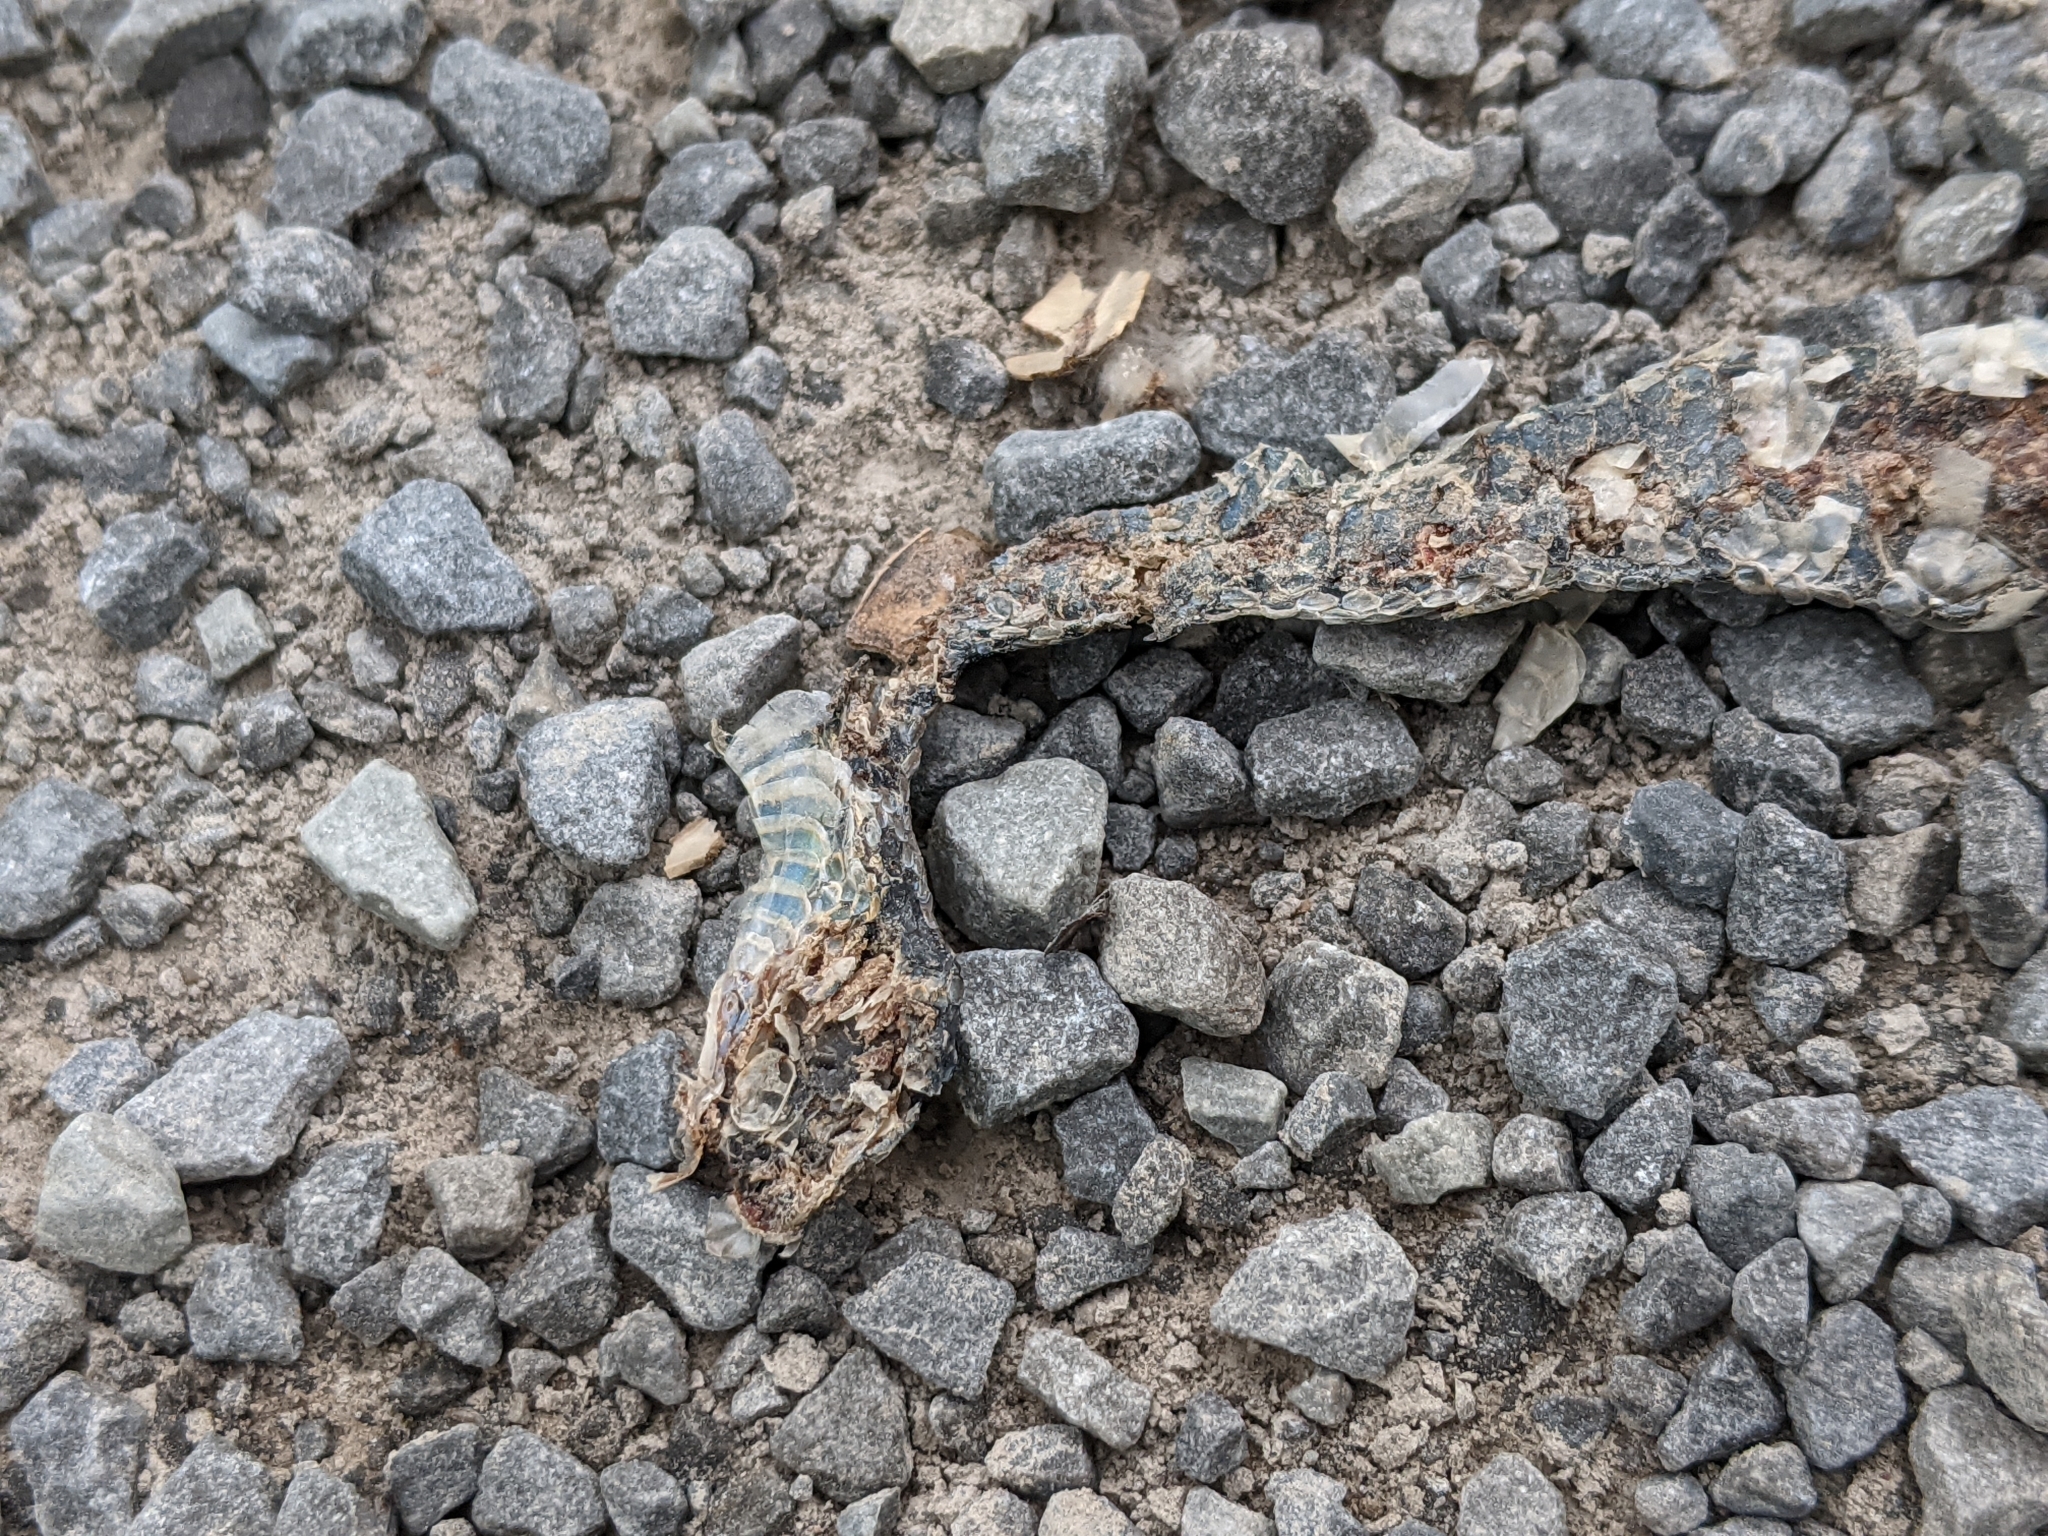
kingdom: Animalia
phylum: Chordata
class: Squamata
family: Colubridae
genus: Thamnophis
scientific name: Thamnophis sirtalis
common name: Common garter snake
